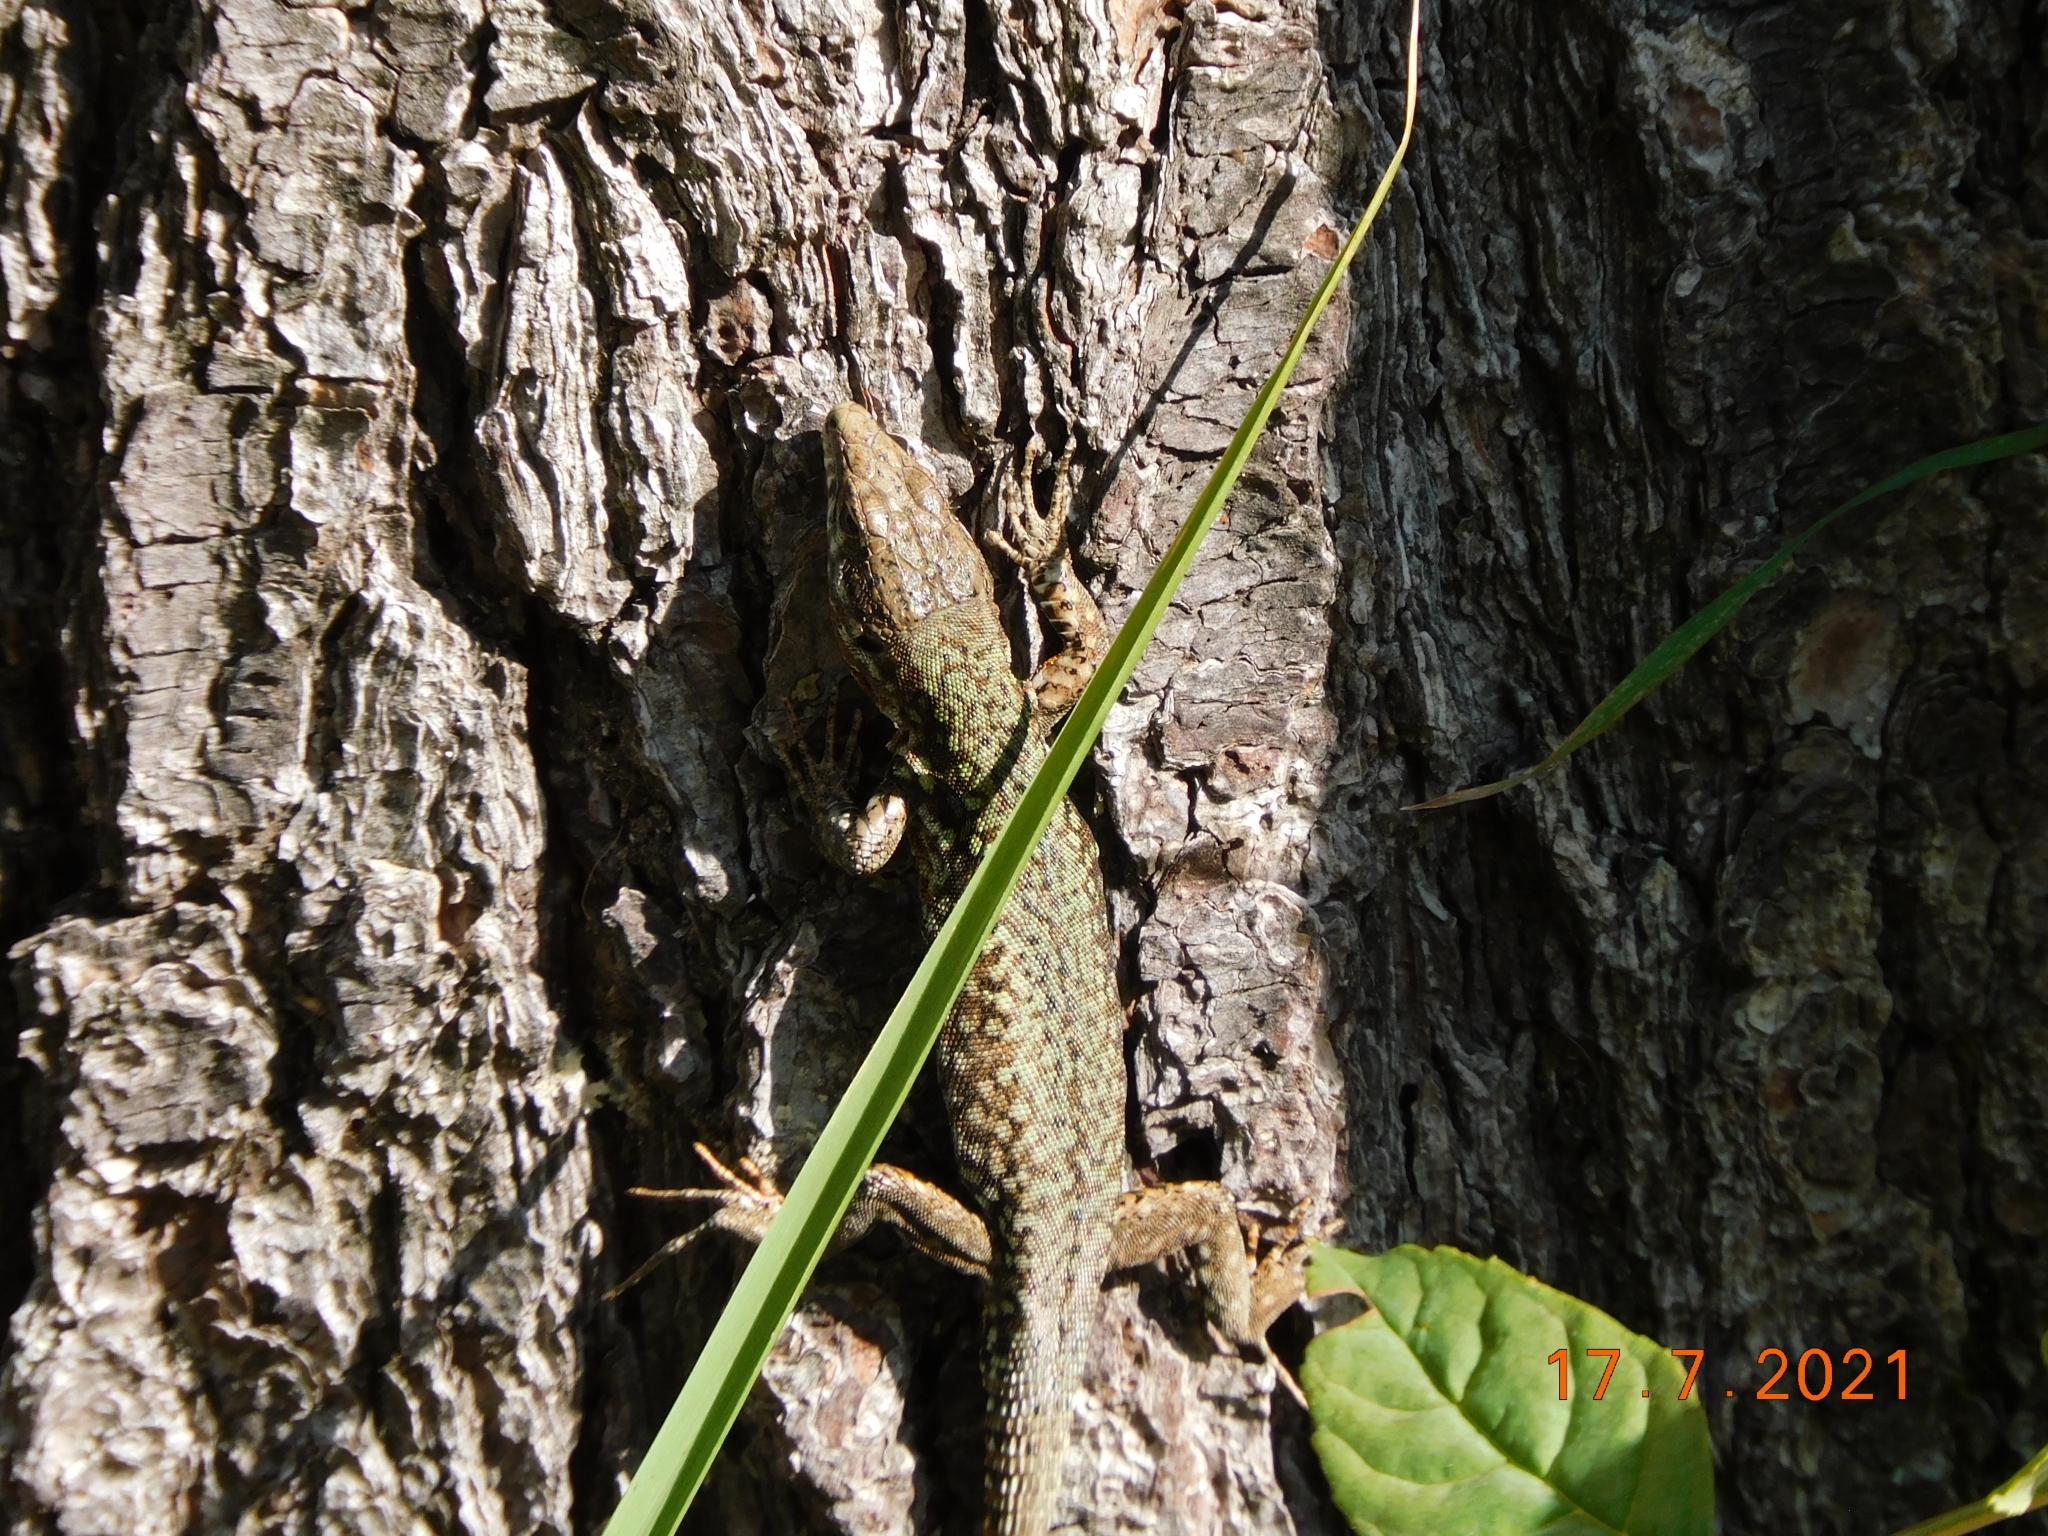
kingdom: Animalia
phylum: Chordata
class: Squamata
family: Lacertidae
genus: Podarcis
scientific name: Podarcis muralis
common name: Common wall lizard
